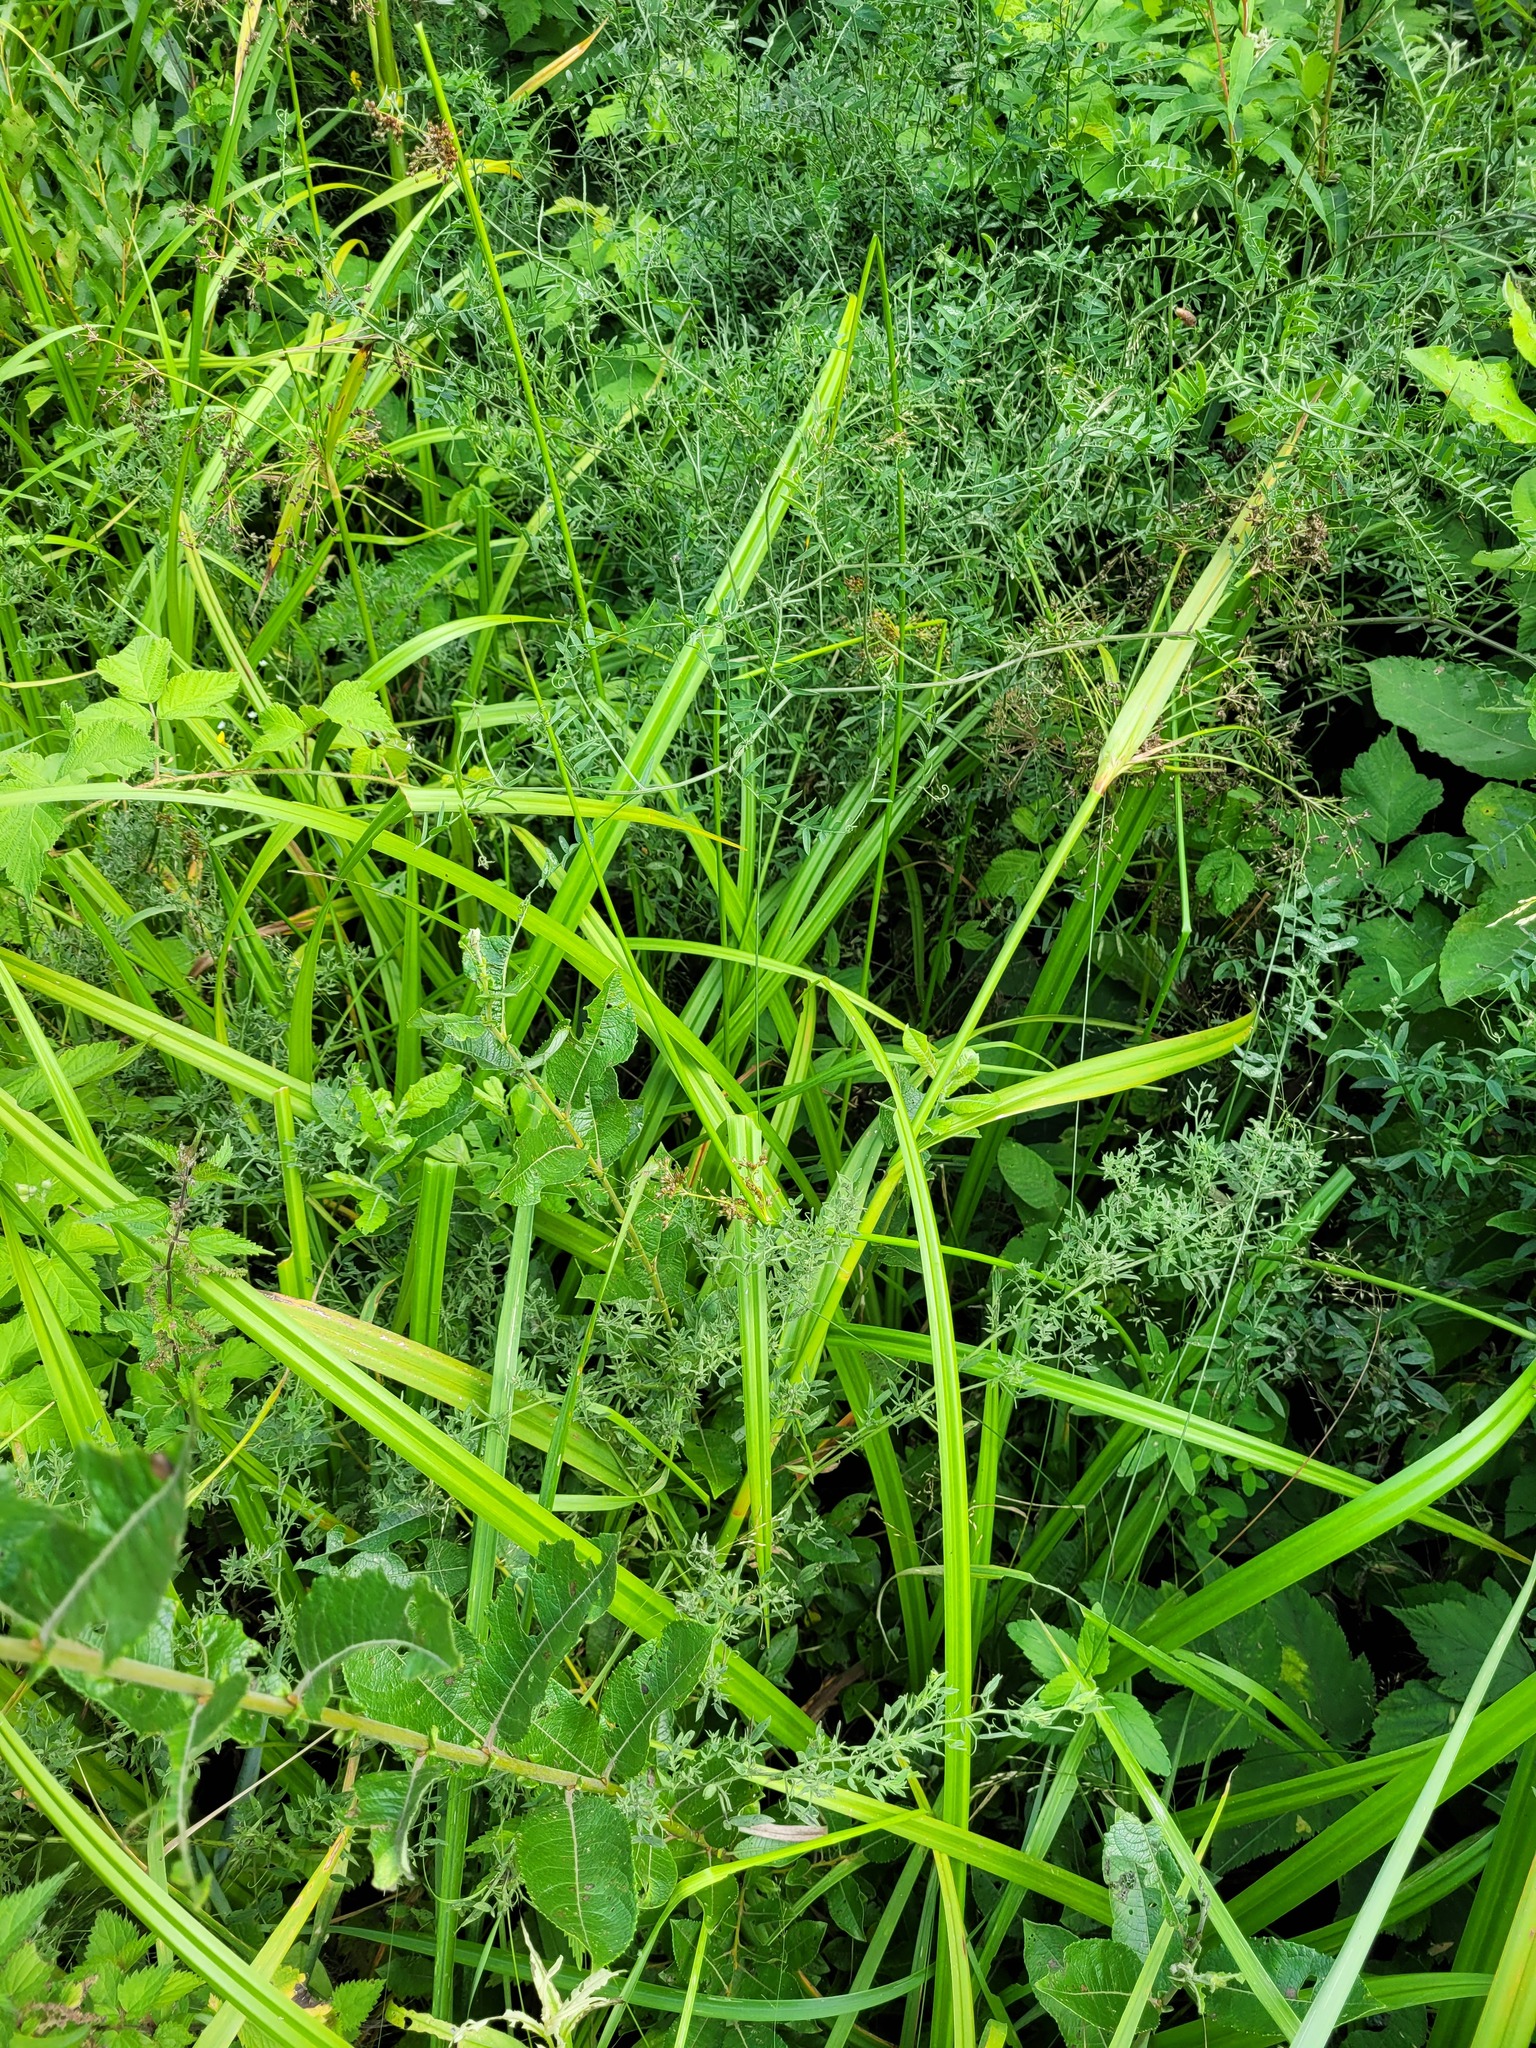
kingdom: Plantae
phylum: Tracheophyta
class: Liliopsida
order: Poales
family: Juncaceae
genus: Juncus
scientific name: Juncus effusus
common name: Soft rush
